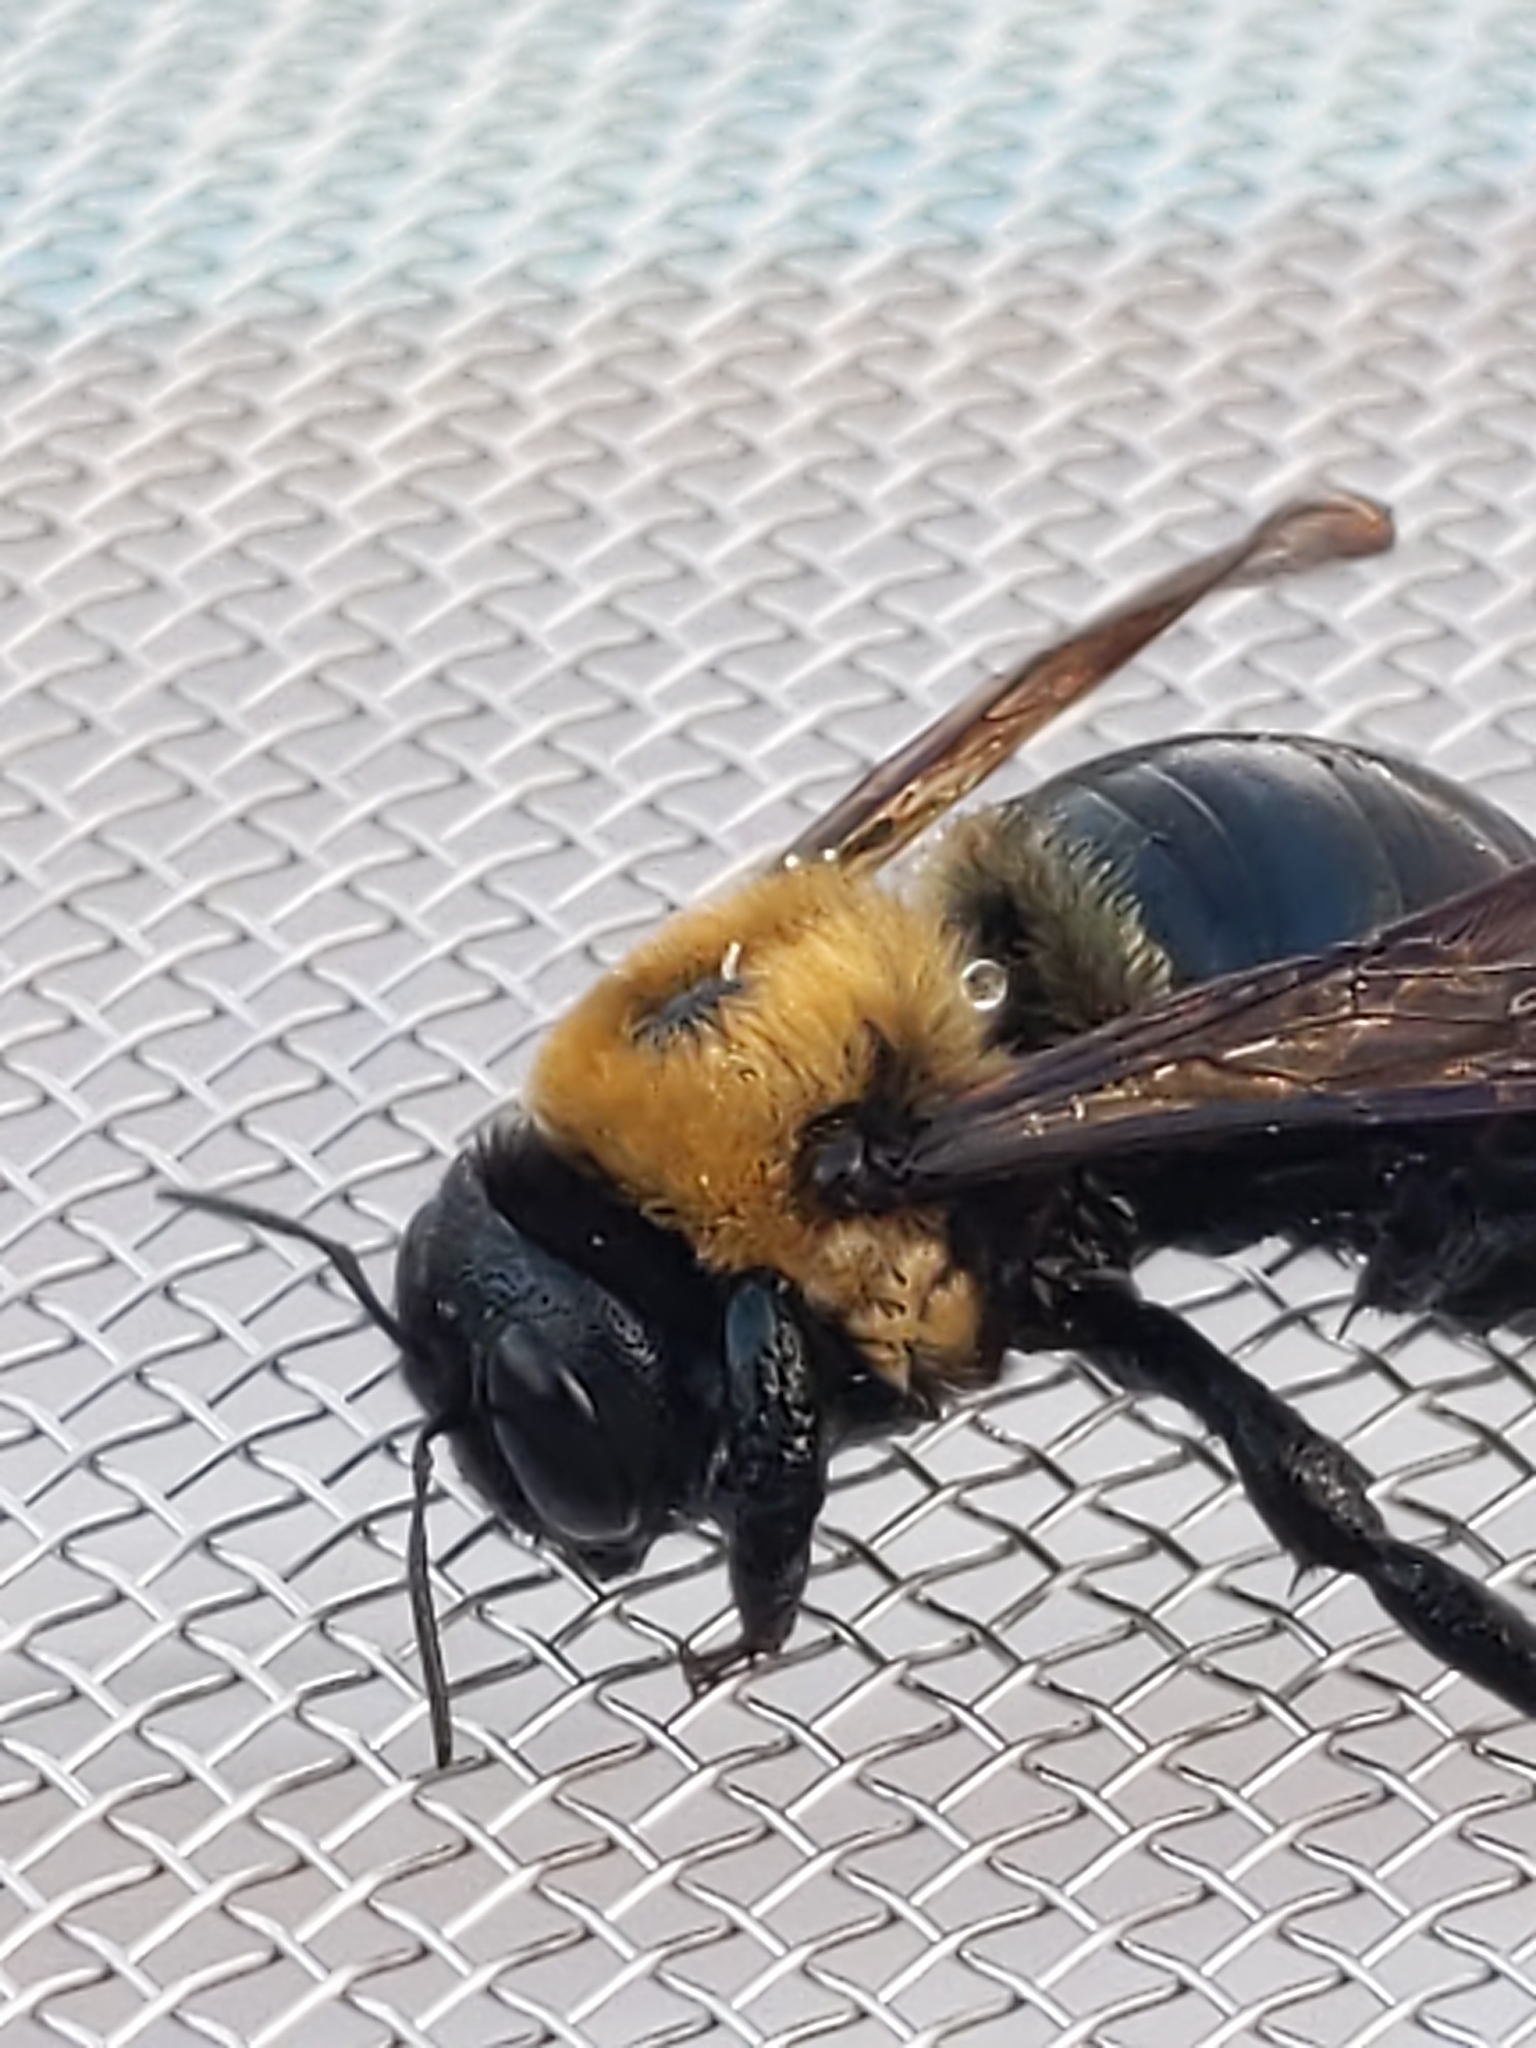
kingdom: Animalia
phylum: Arthropoda
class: Insecta
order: Hymenoptera
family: Apidae
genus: Xylocopa
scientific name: Xylocopa virginica
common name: Carpenter bee
